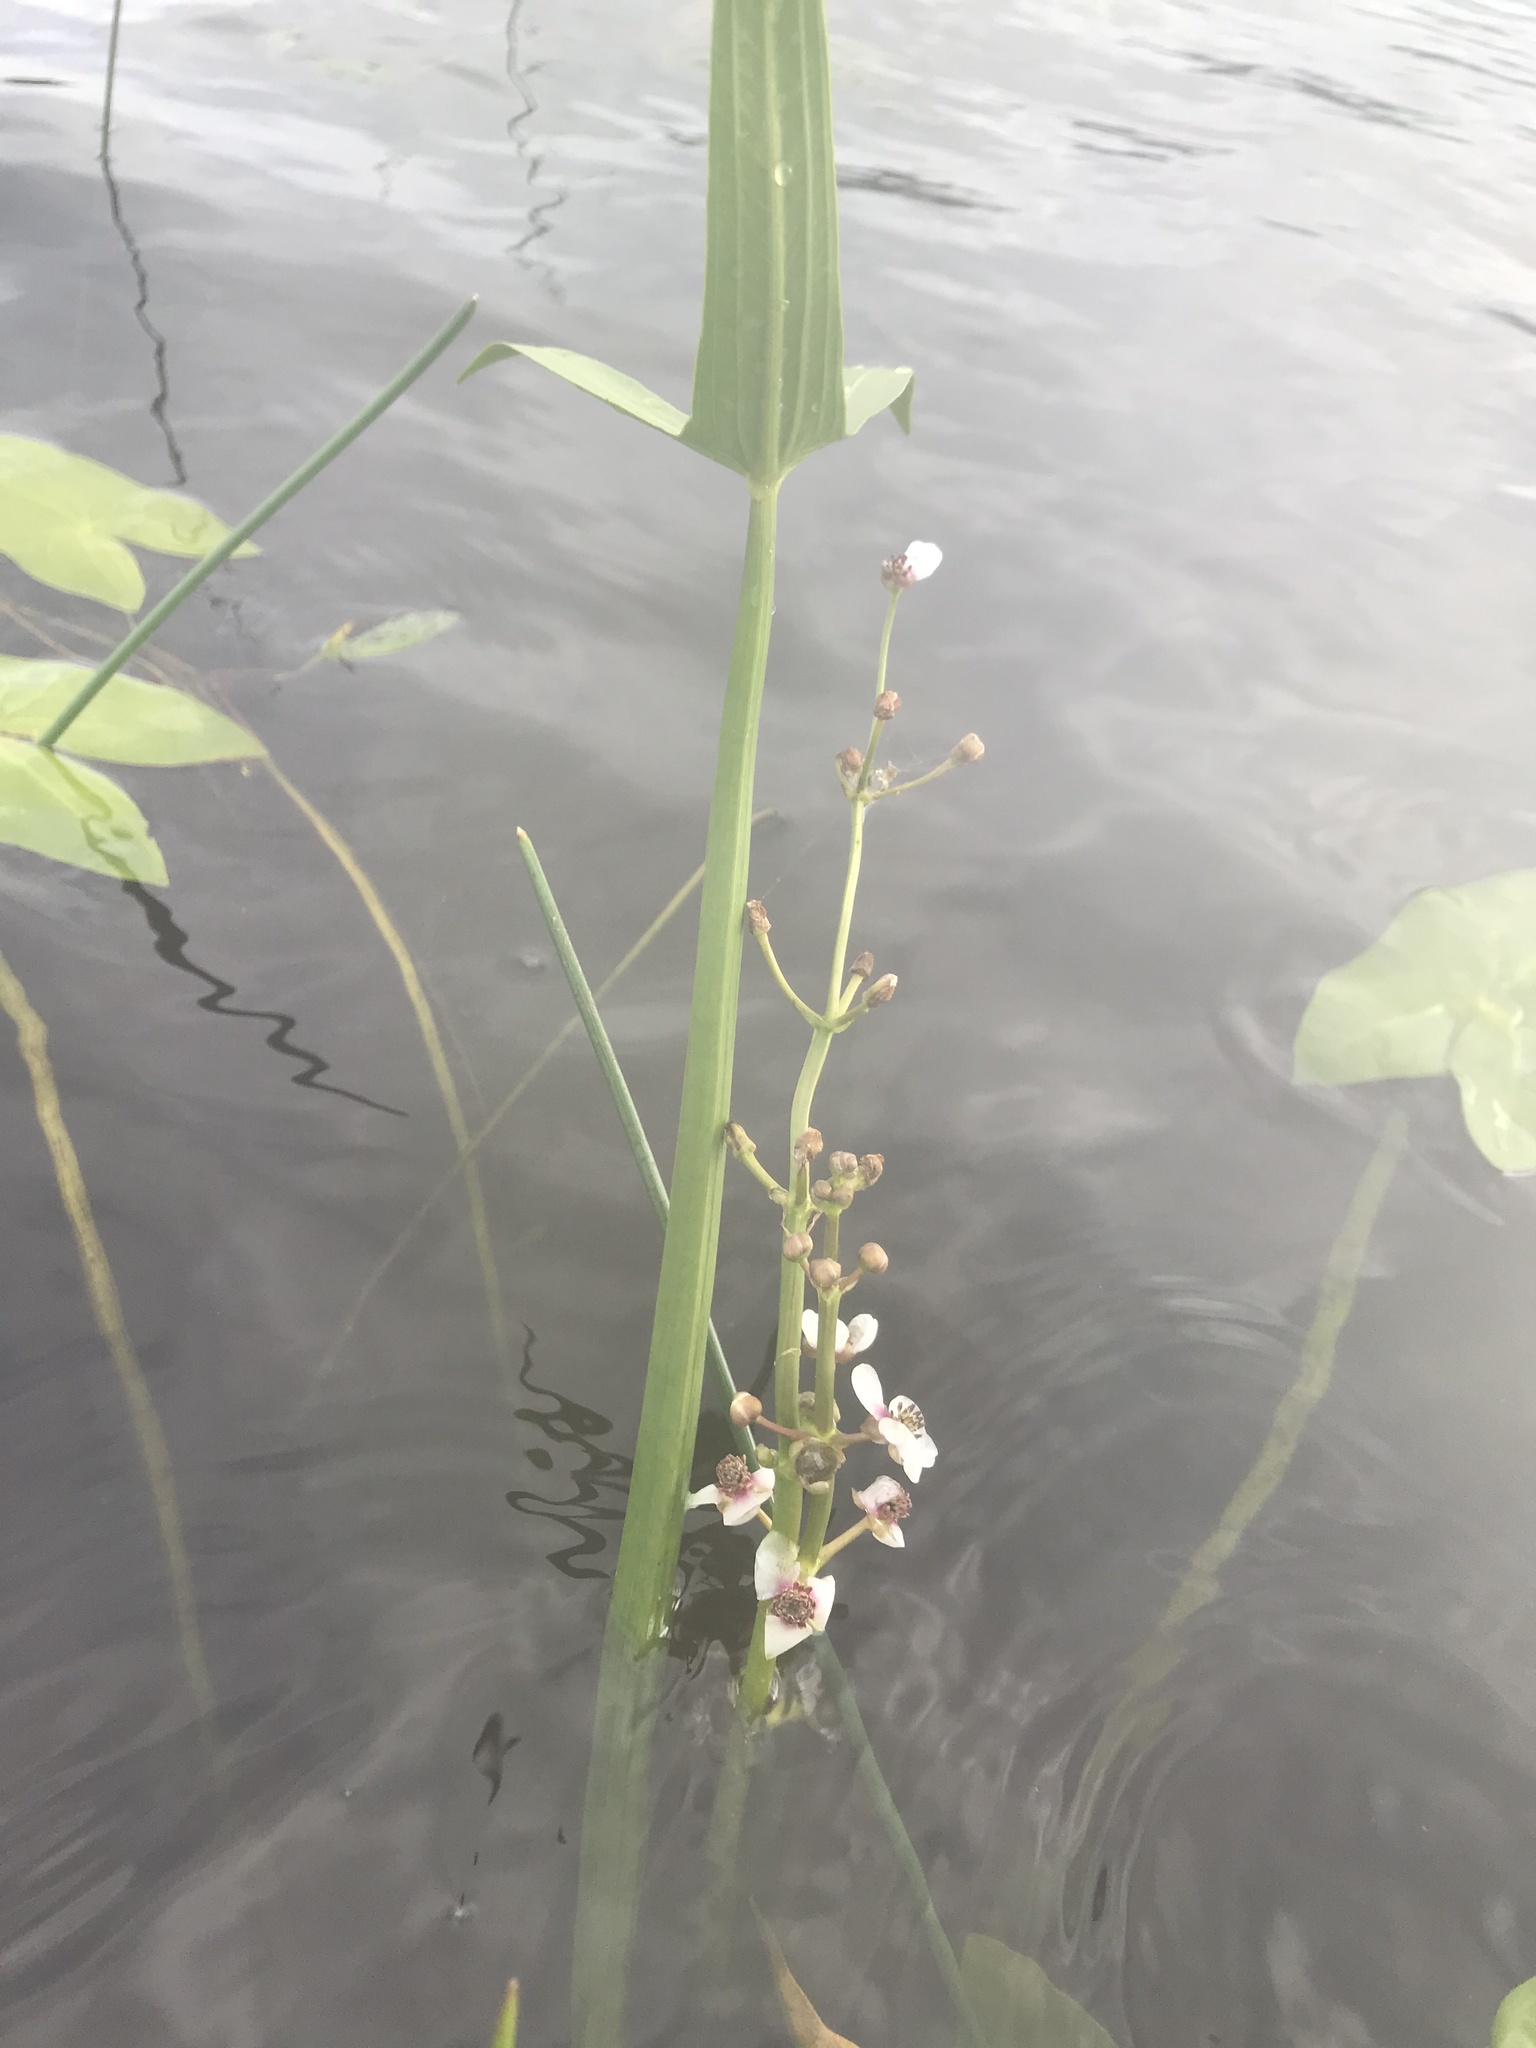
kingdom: Plantae
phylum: Tracheophyta
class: Liliopsida
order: Alismatales
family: Alismataceae
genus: Sagittaria
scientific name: Sagittaria sagittifolia
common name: Arrowhead
